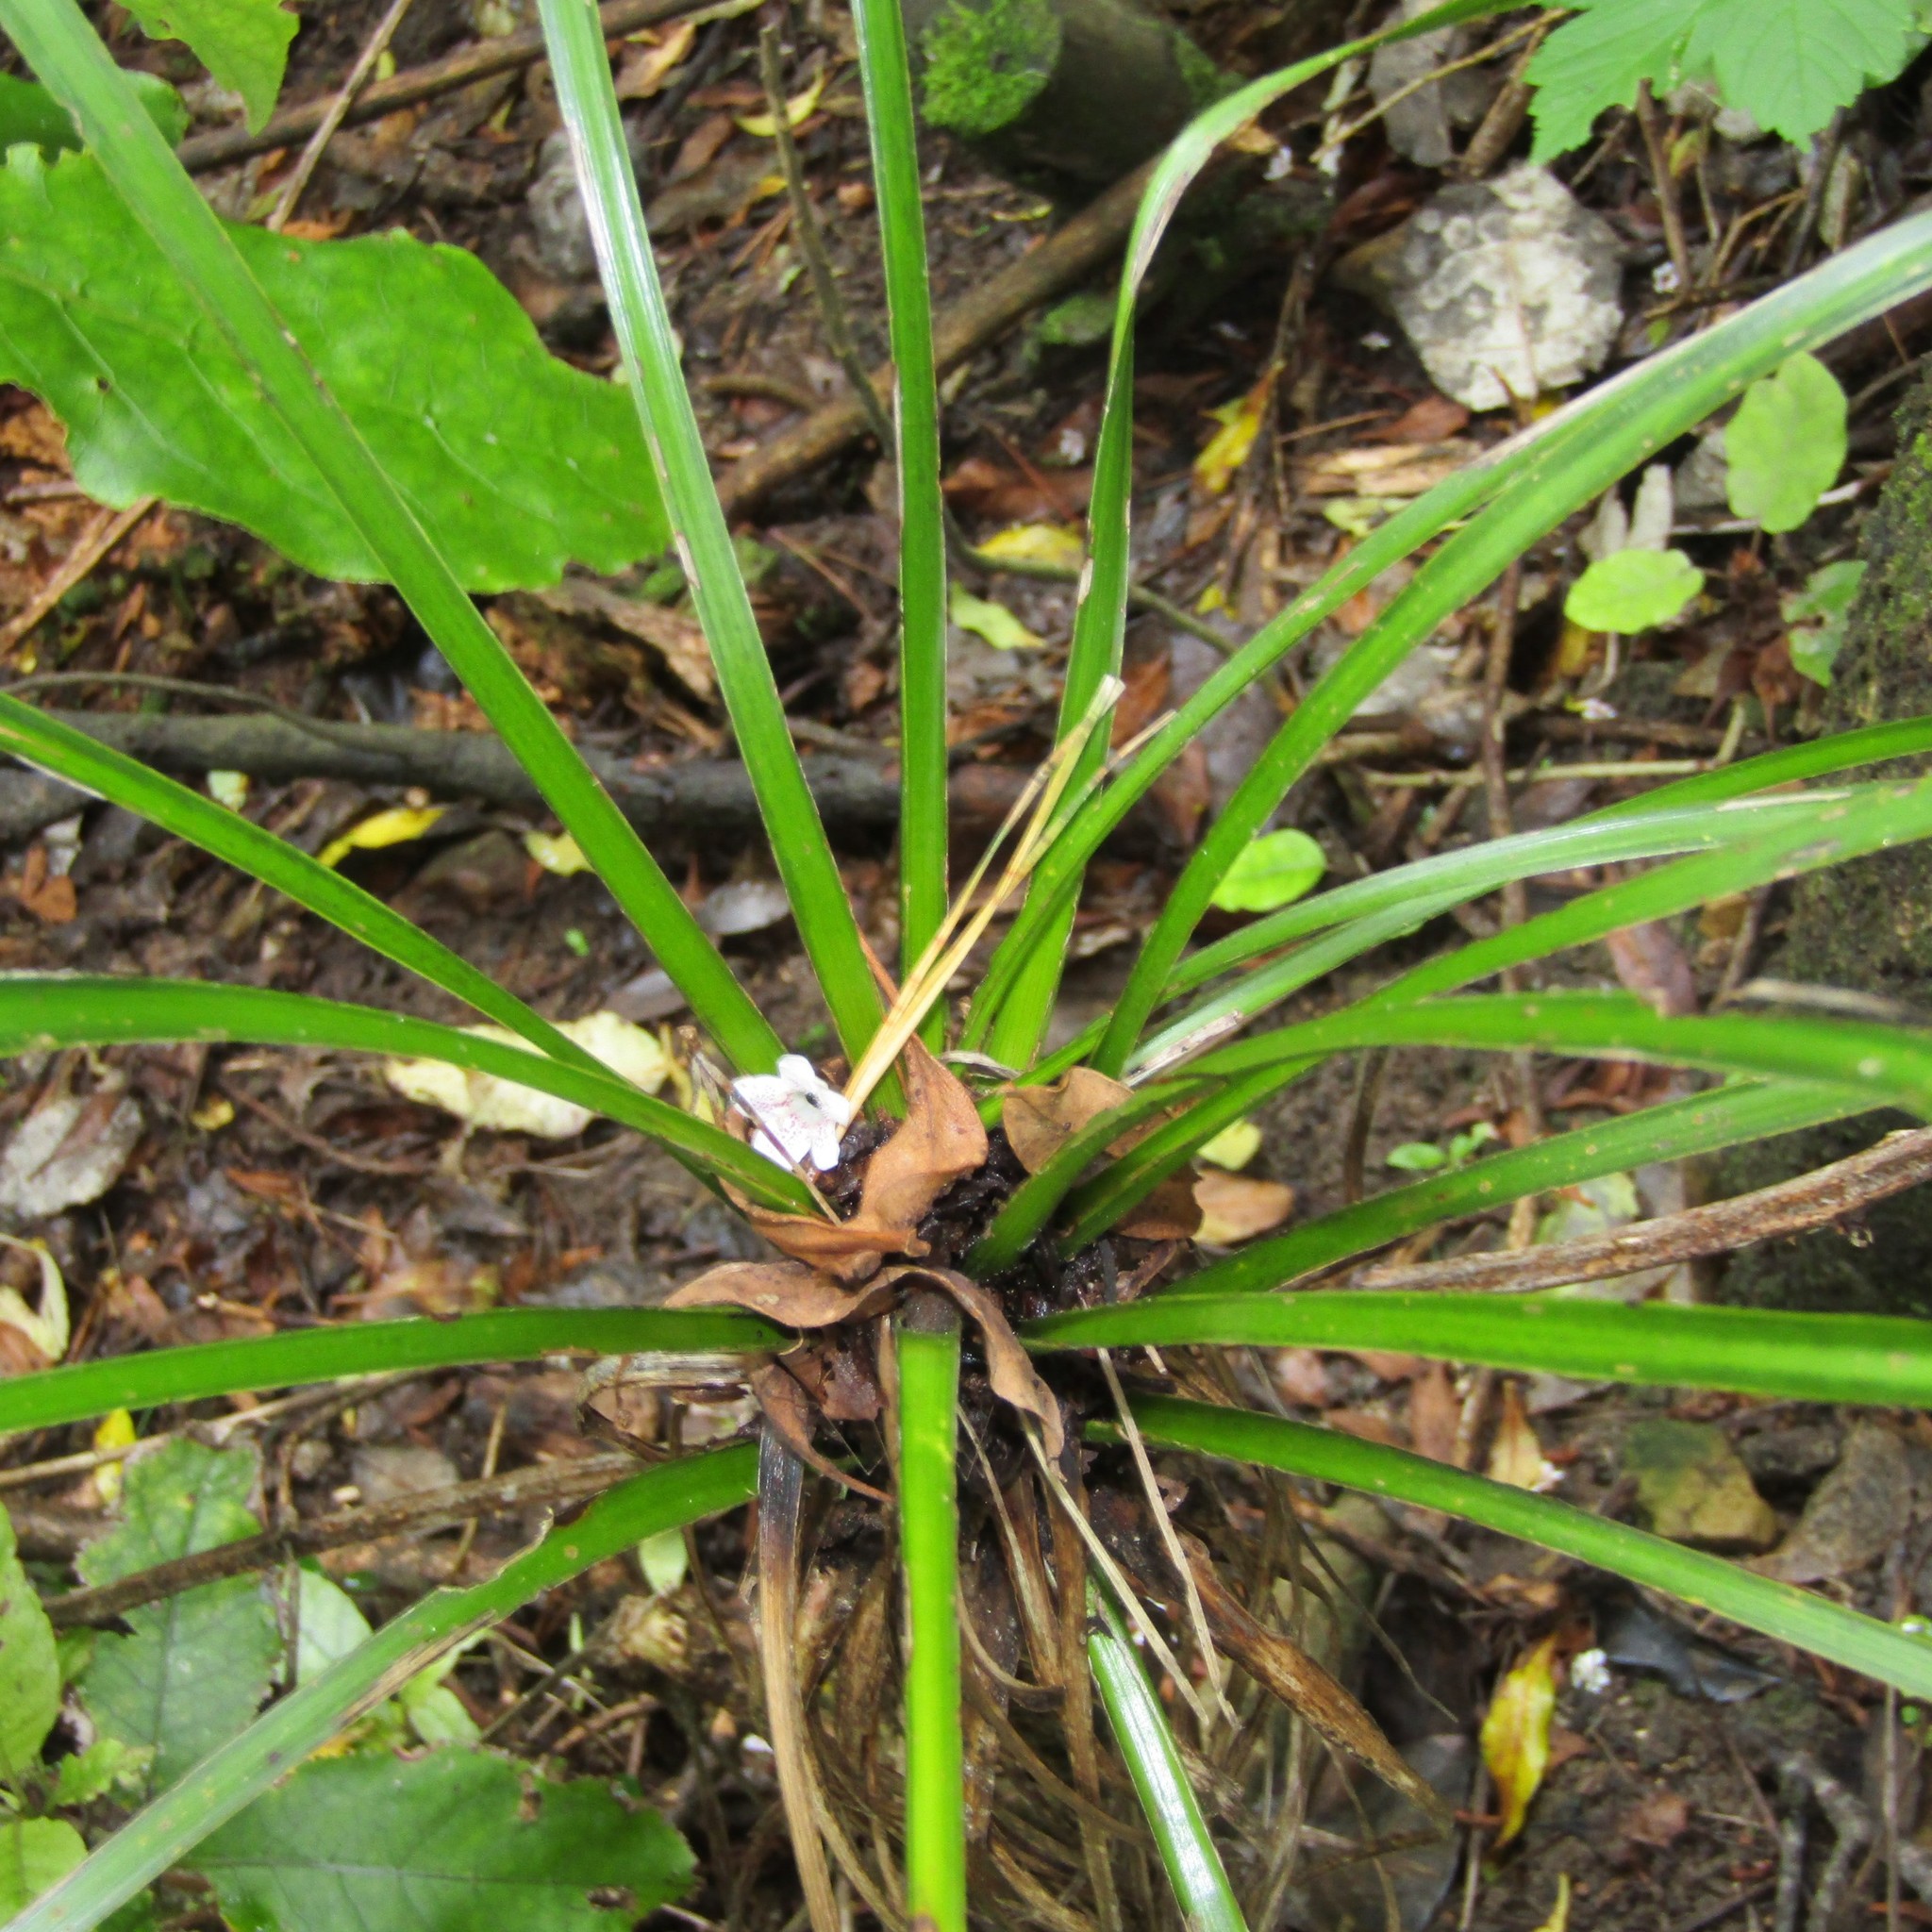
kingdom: Plantae
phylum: Tracheophyta
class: Liliopsida
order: Asparagales
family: Asparagaceae
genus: Cordyline
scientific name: Cordyline australis
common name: Cabbage-palm
